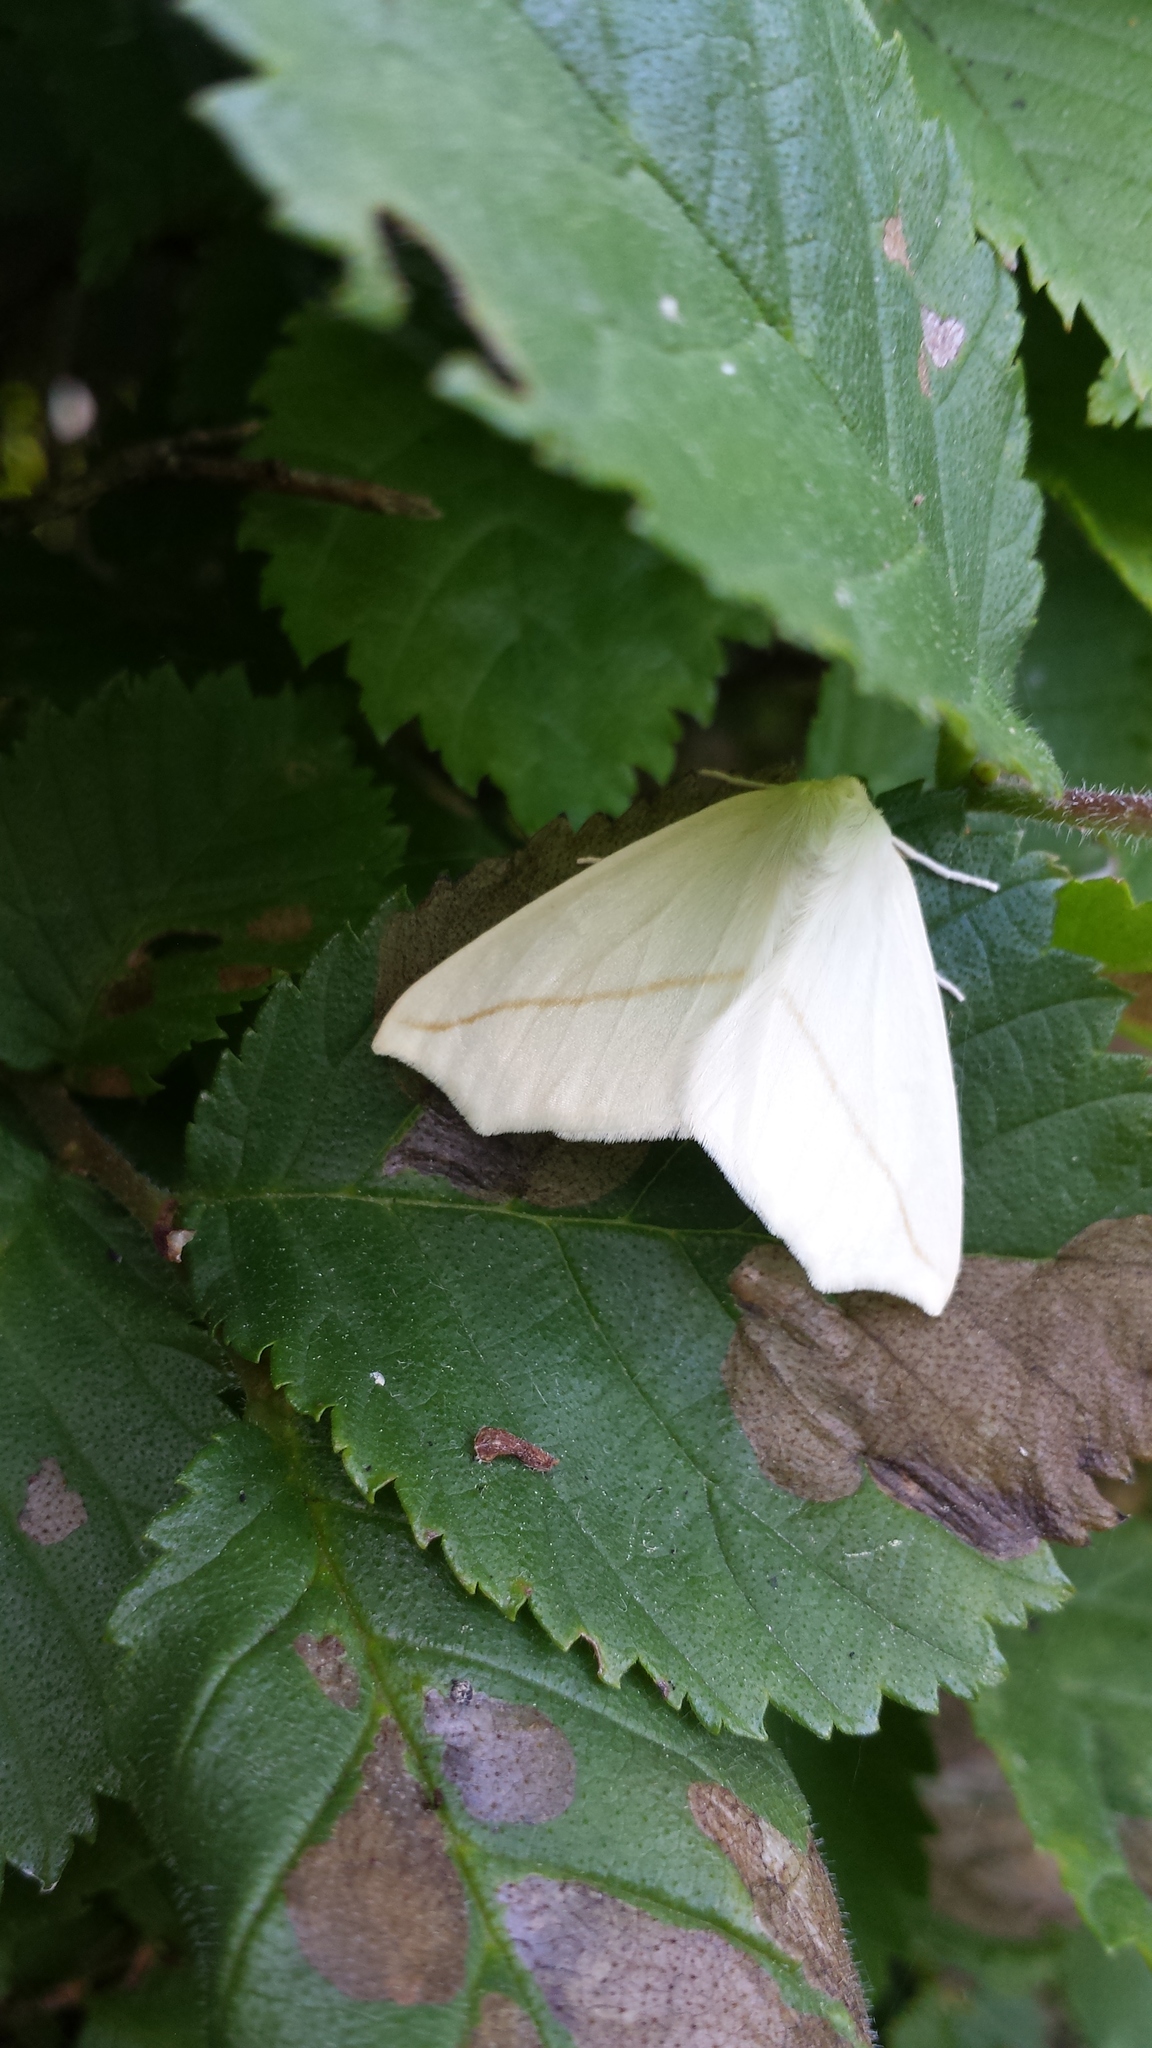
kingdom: Animalia
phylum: Arthropoda
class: Insecta
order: Lepidoptera
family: Geometridae
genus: Tetracis
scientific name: Tetracis cachexiata
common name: White slant-line
